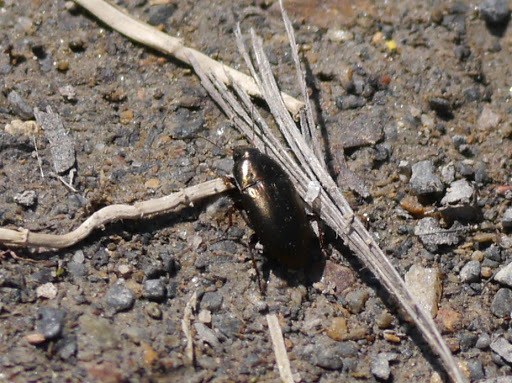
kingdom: Animalia
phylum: Arthropoda
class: Insecta
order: Coleoptera
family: Carabidae
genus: Amara
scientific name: Amara
